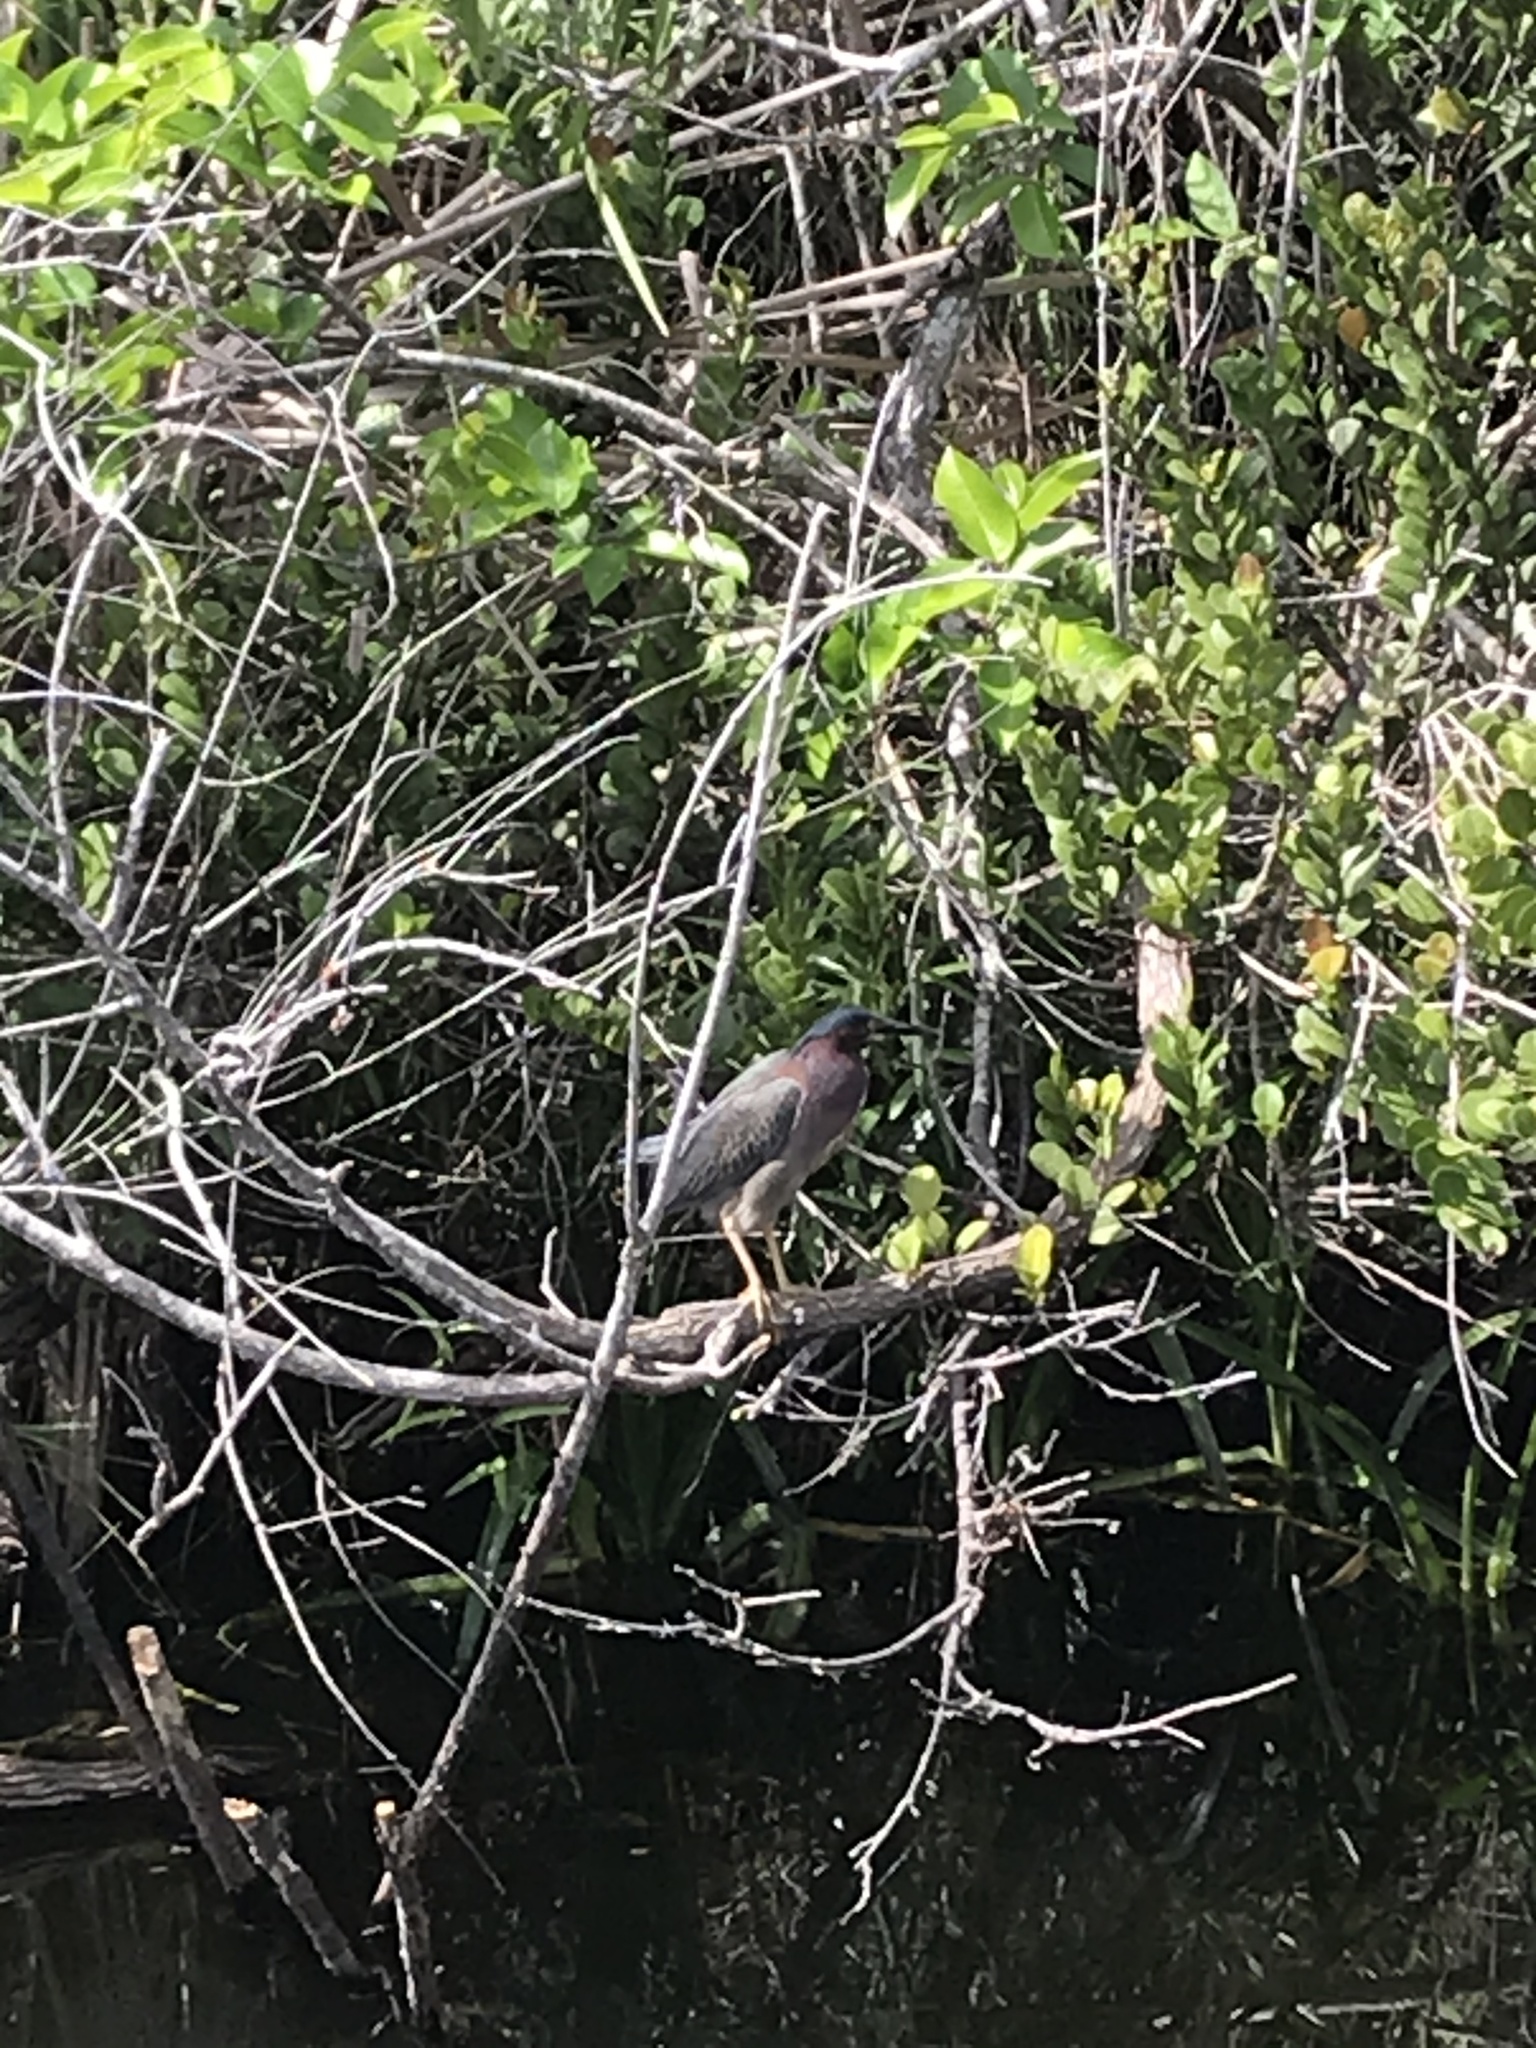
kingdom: Animalia
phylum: Chordata
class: Aves
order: Pelecaniformes
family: Ardeidae
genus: Butorides
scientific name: Butorides virescens
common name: Green heron
